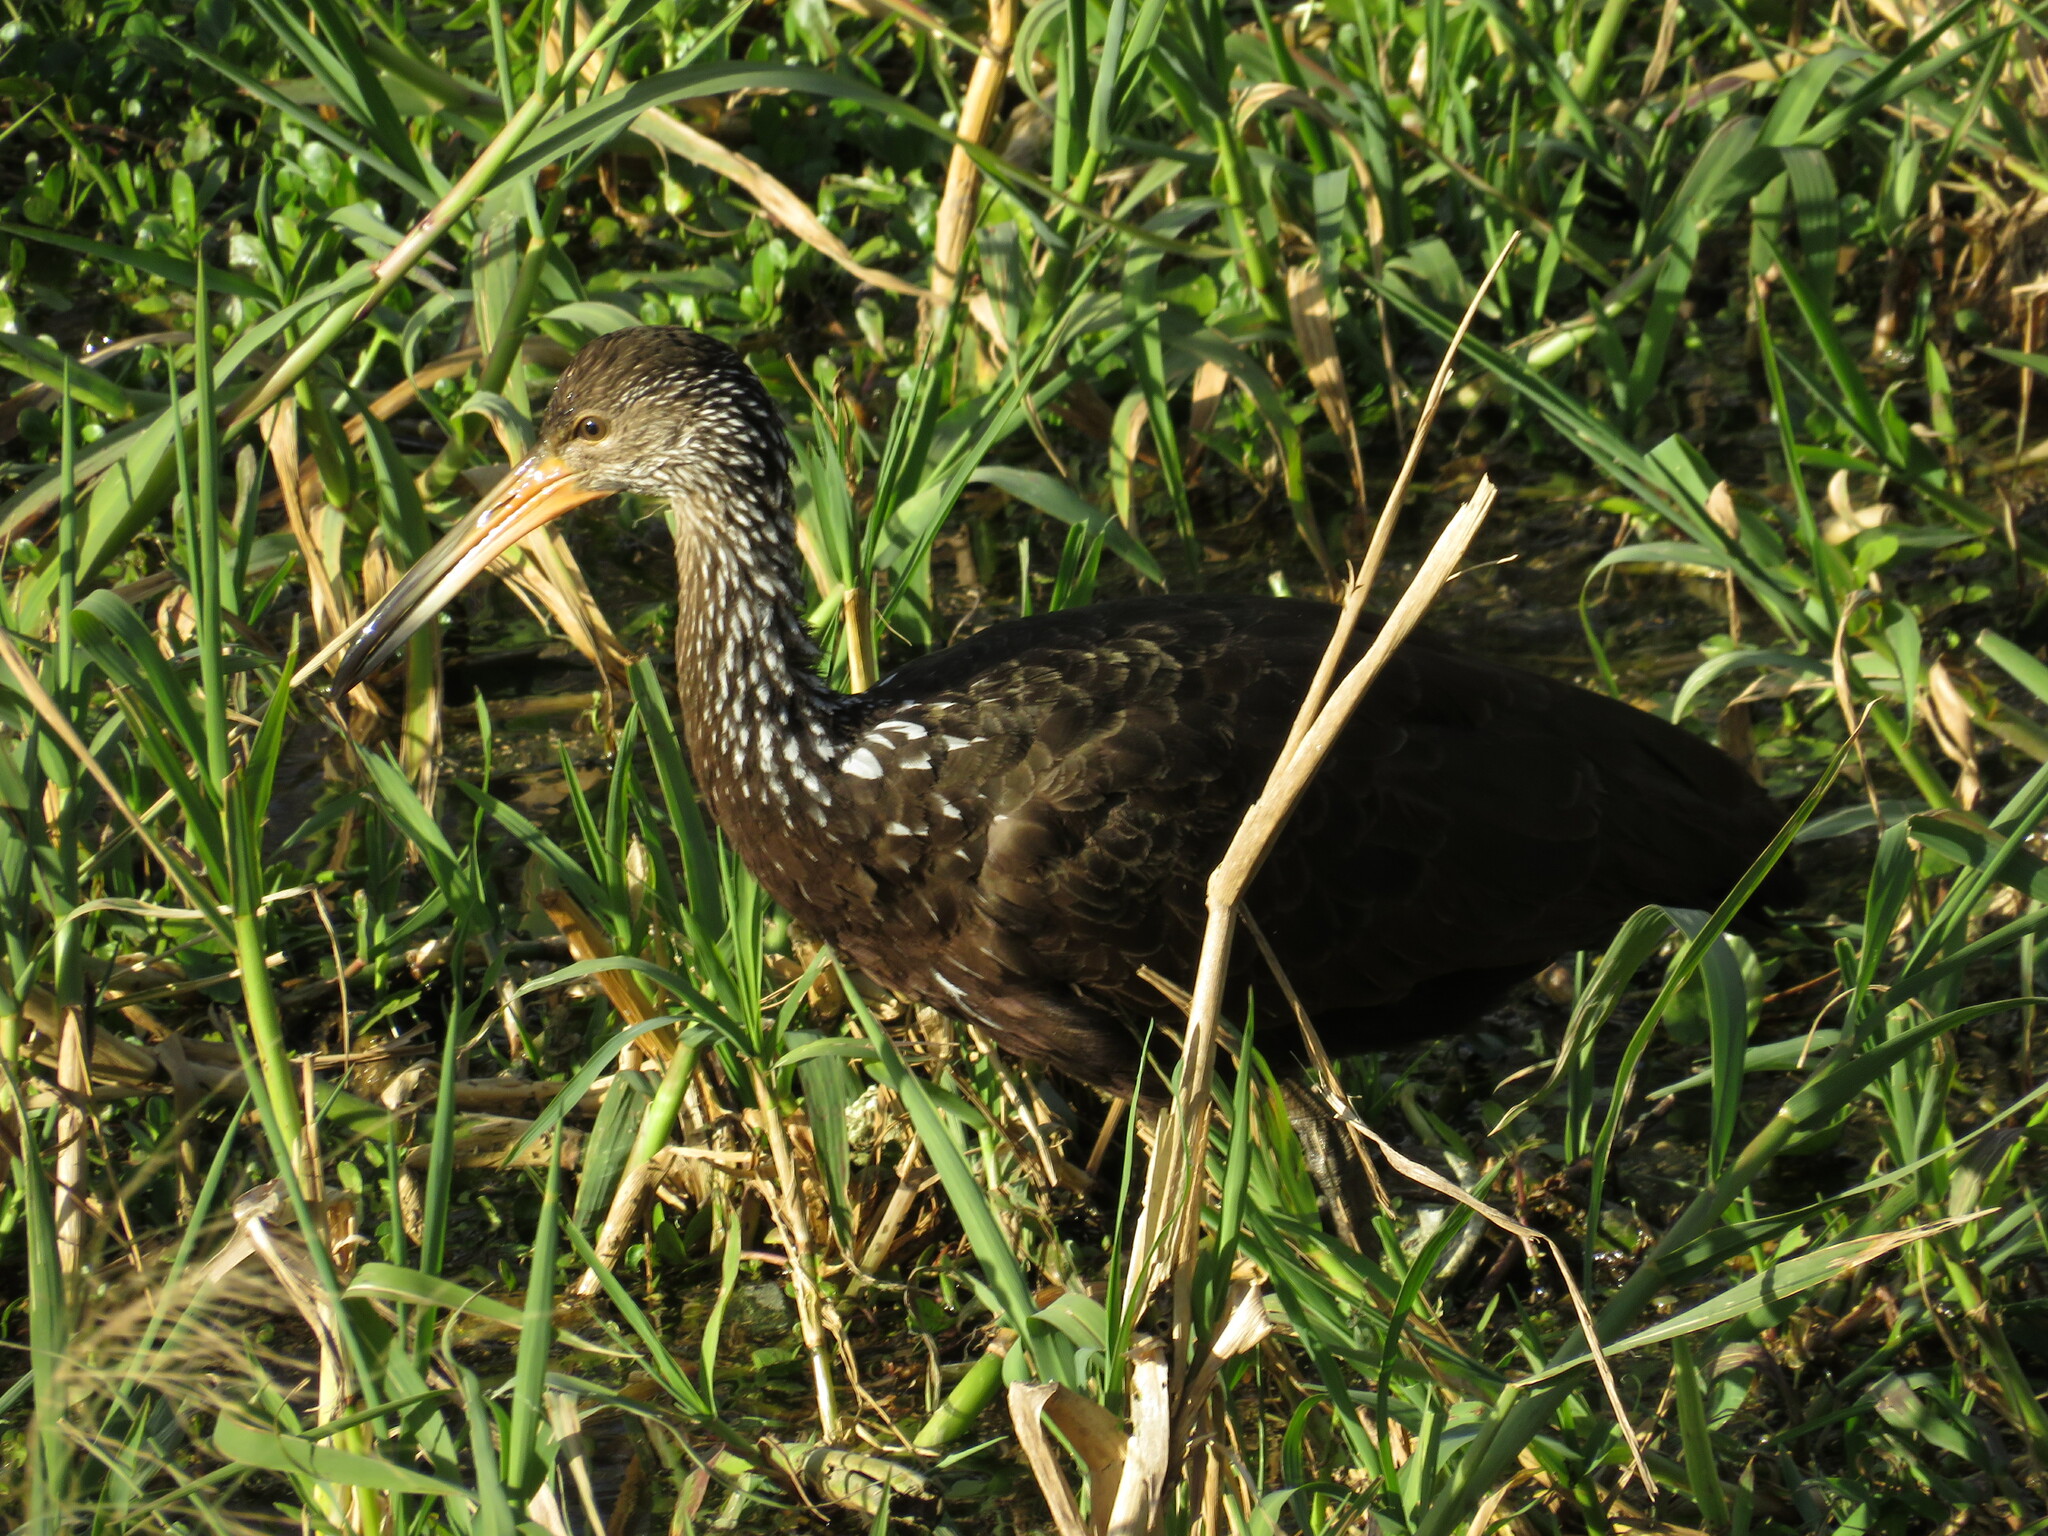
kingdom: Animalia
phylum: Chordata
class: Aves
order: Gruiformes
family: Aramidae
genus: Aramus
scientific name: Aramus guarauna
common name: Limpkin
